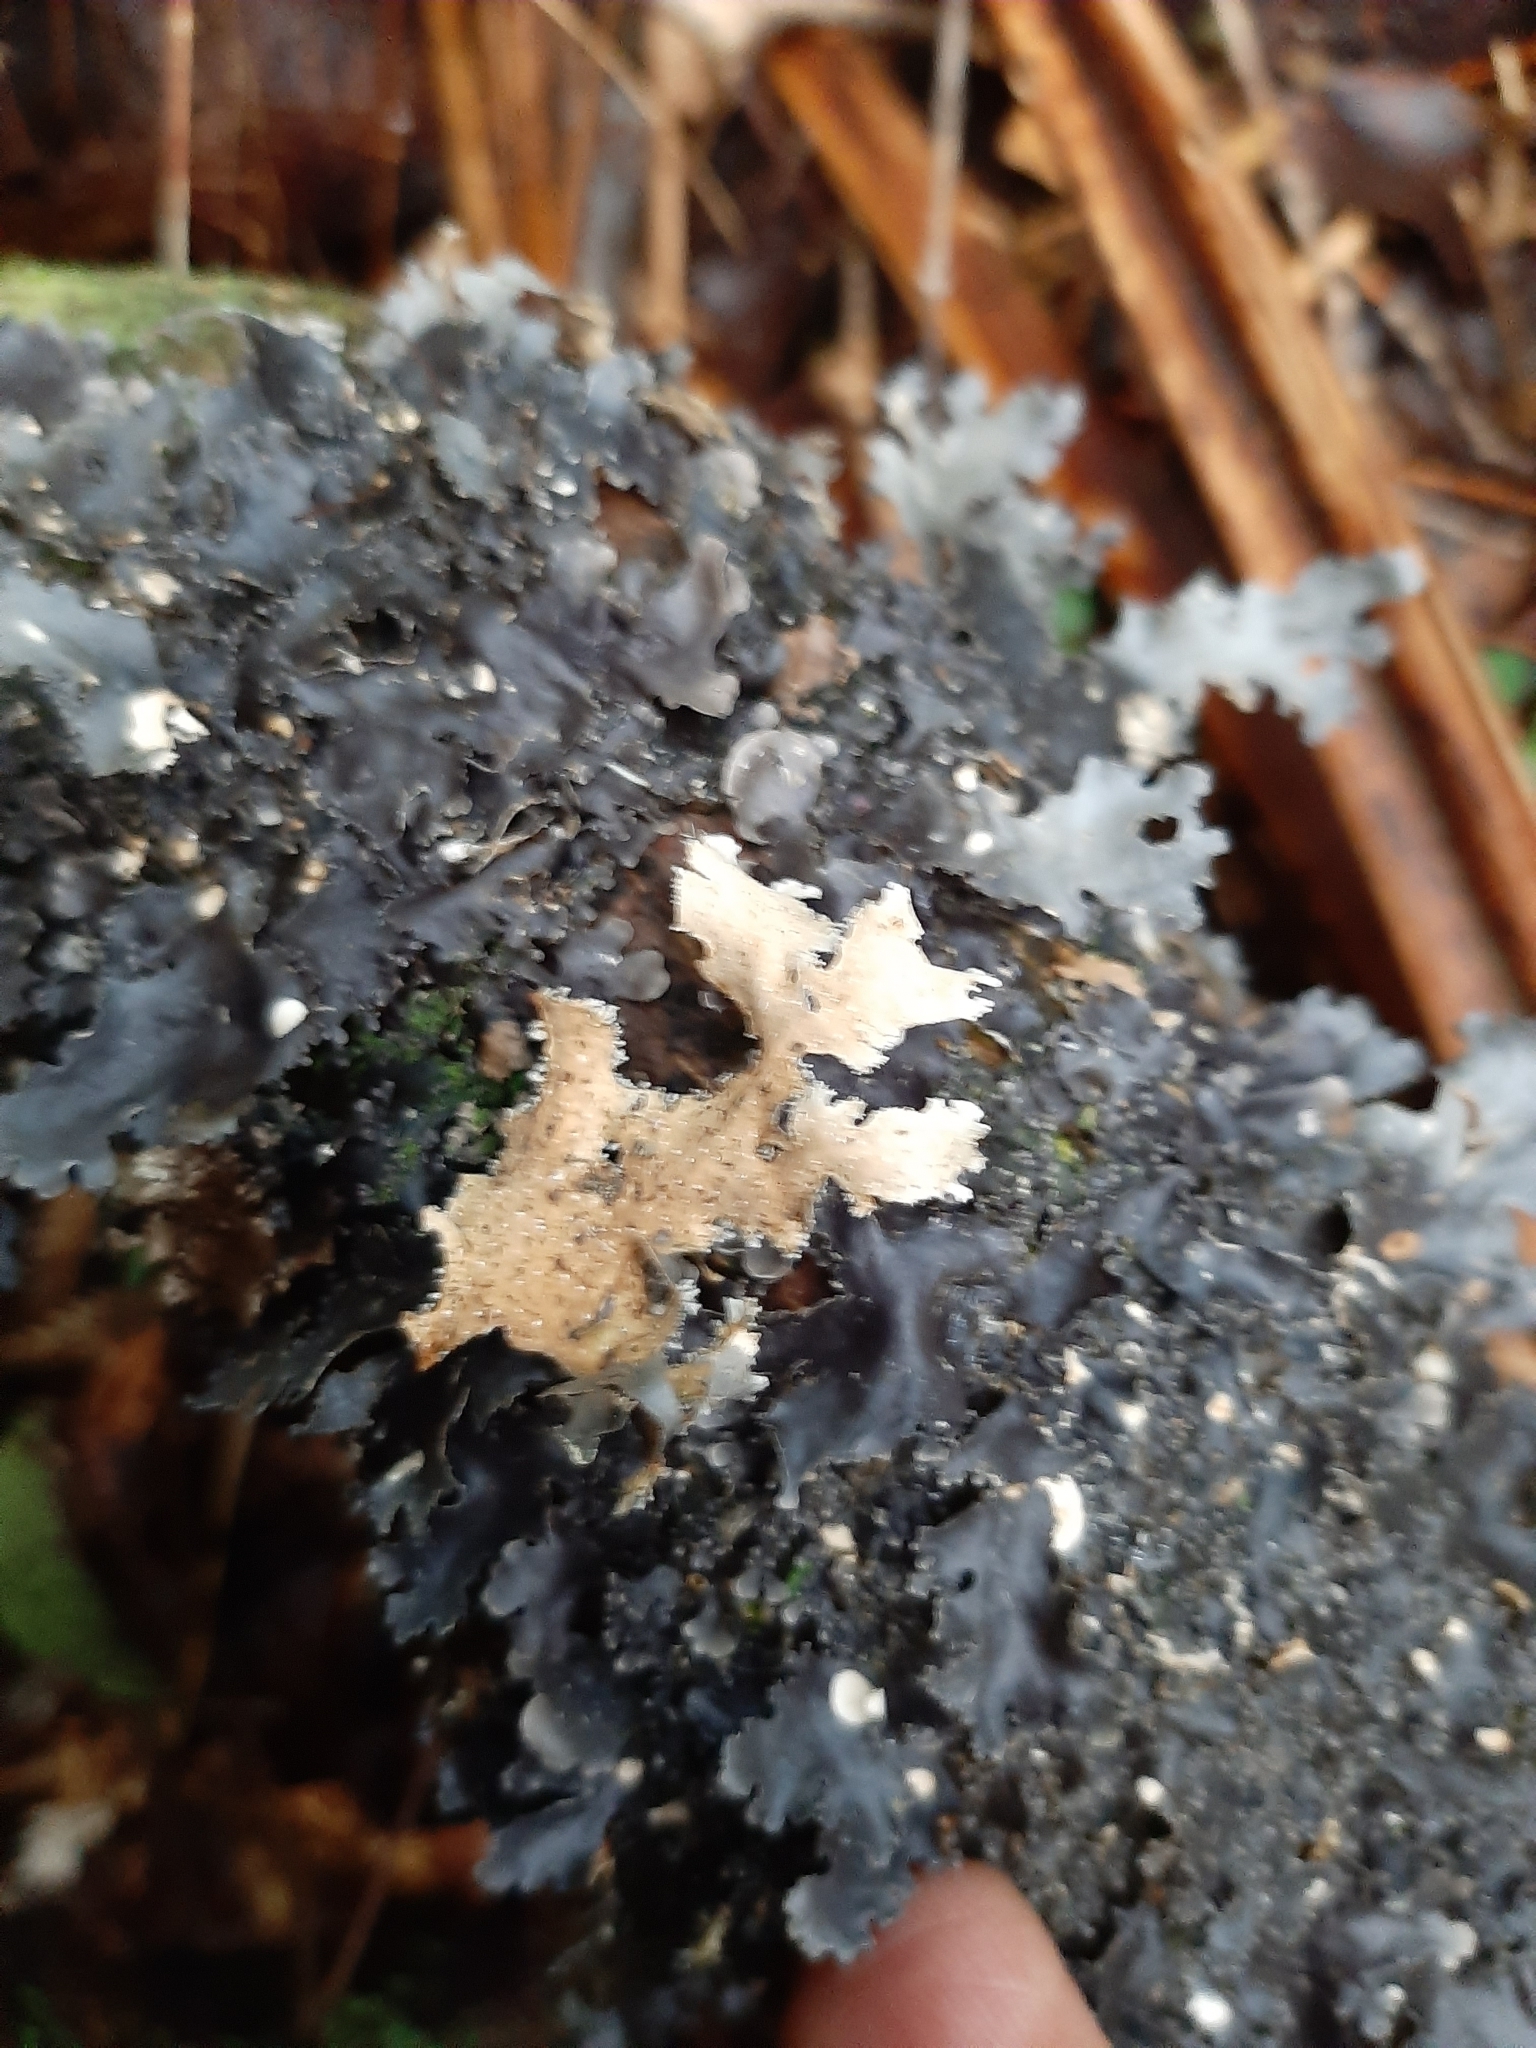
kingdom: Fungi
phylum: Ascomycota
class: Lecanoromycetes
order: Peltigerales
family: Lobariaceae
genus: Pseudocyphellaria
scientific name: Pseudocyphellaria dissimilis
